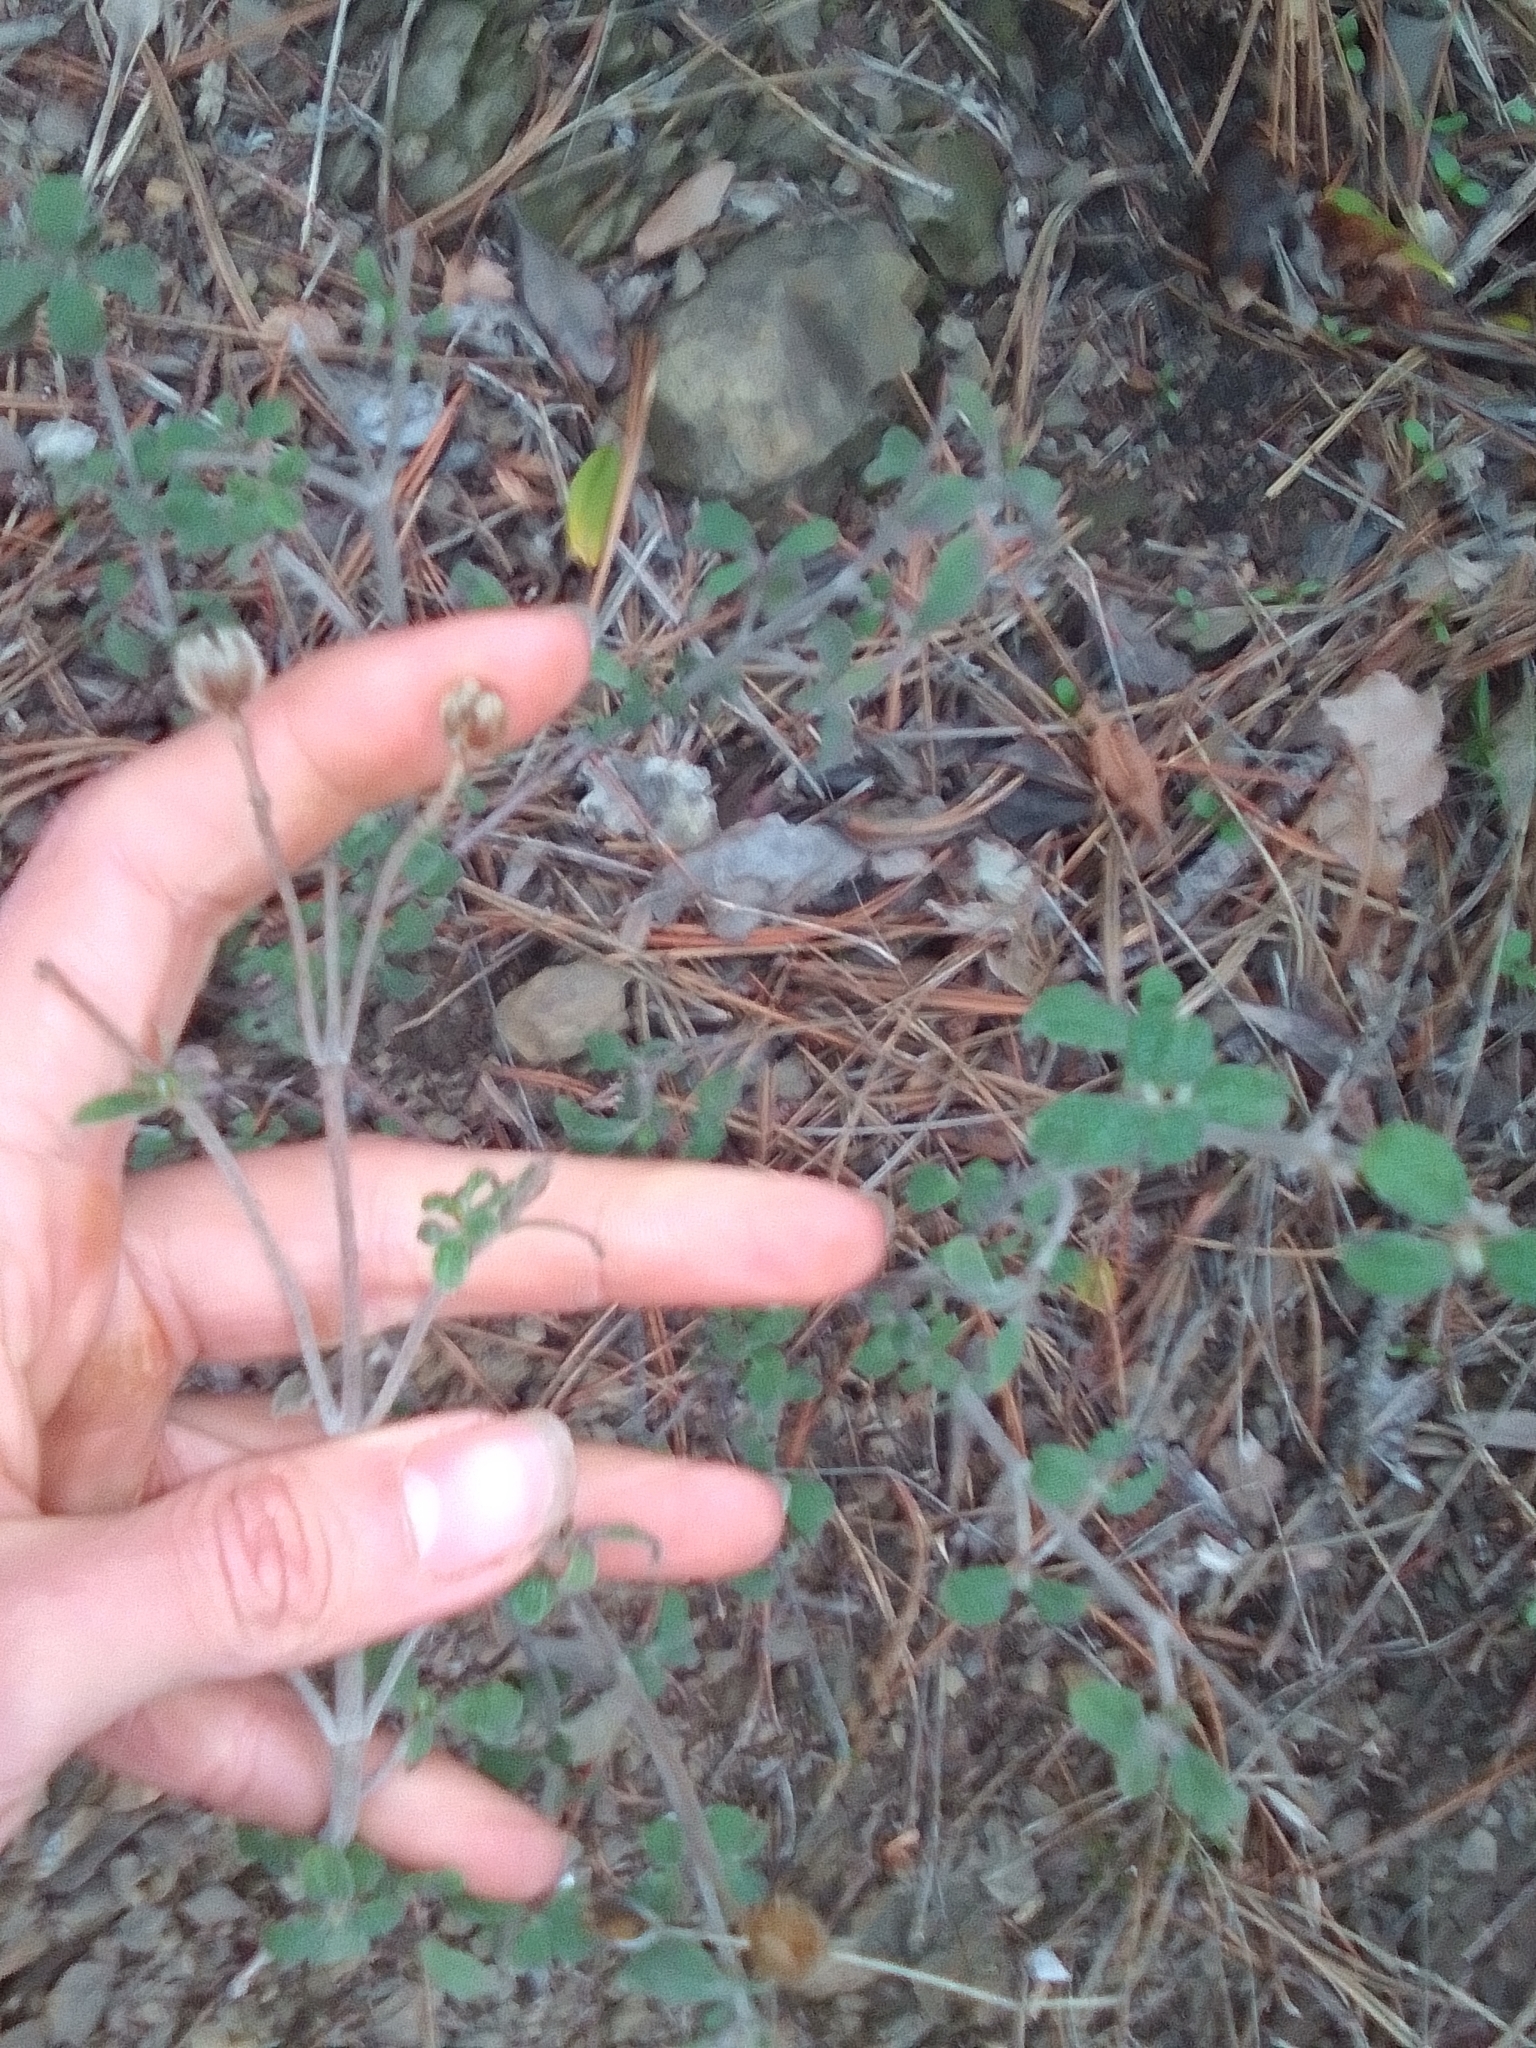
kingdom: Plantae
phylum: Tracheophyta
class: Magnoliopsida
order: Malvales
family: Cistaceae
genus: Cistus
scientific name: Cistus tauricus
